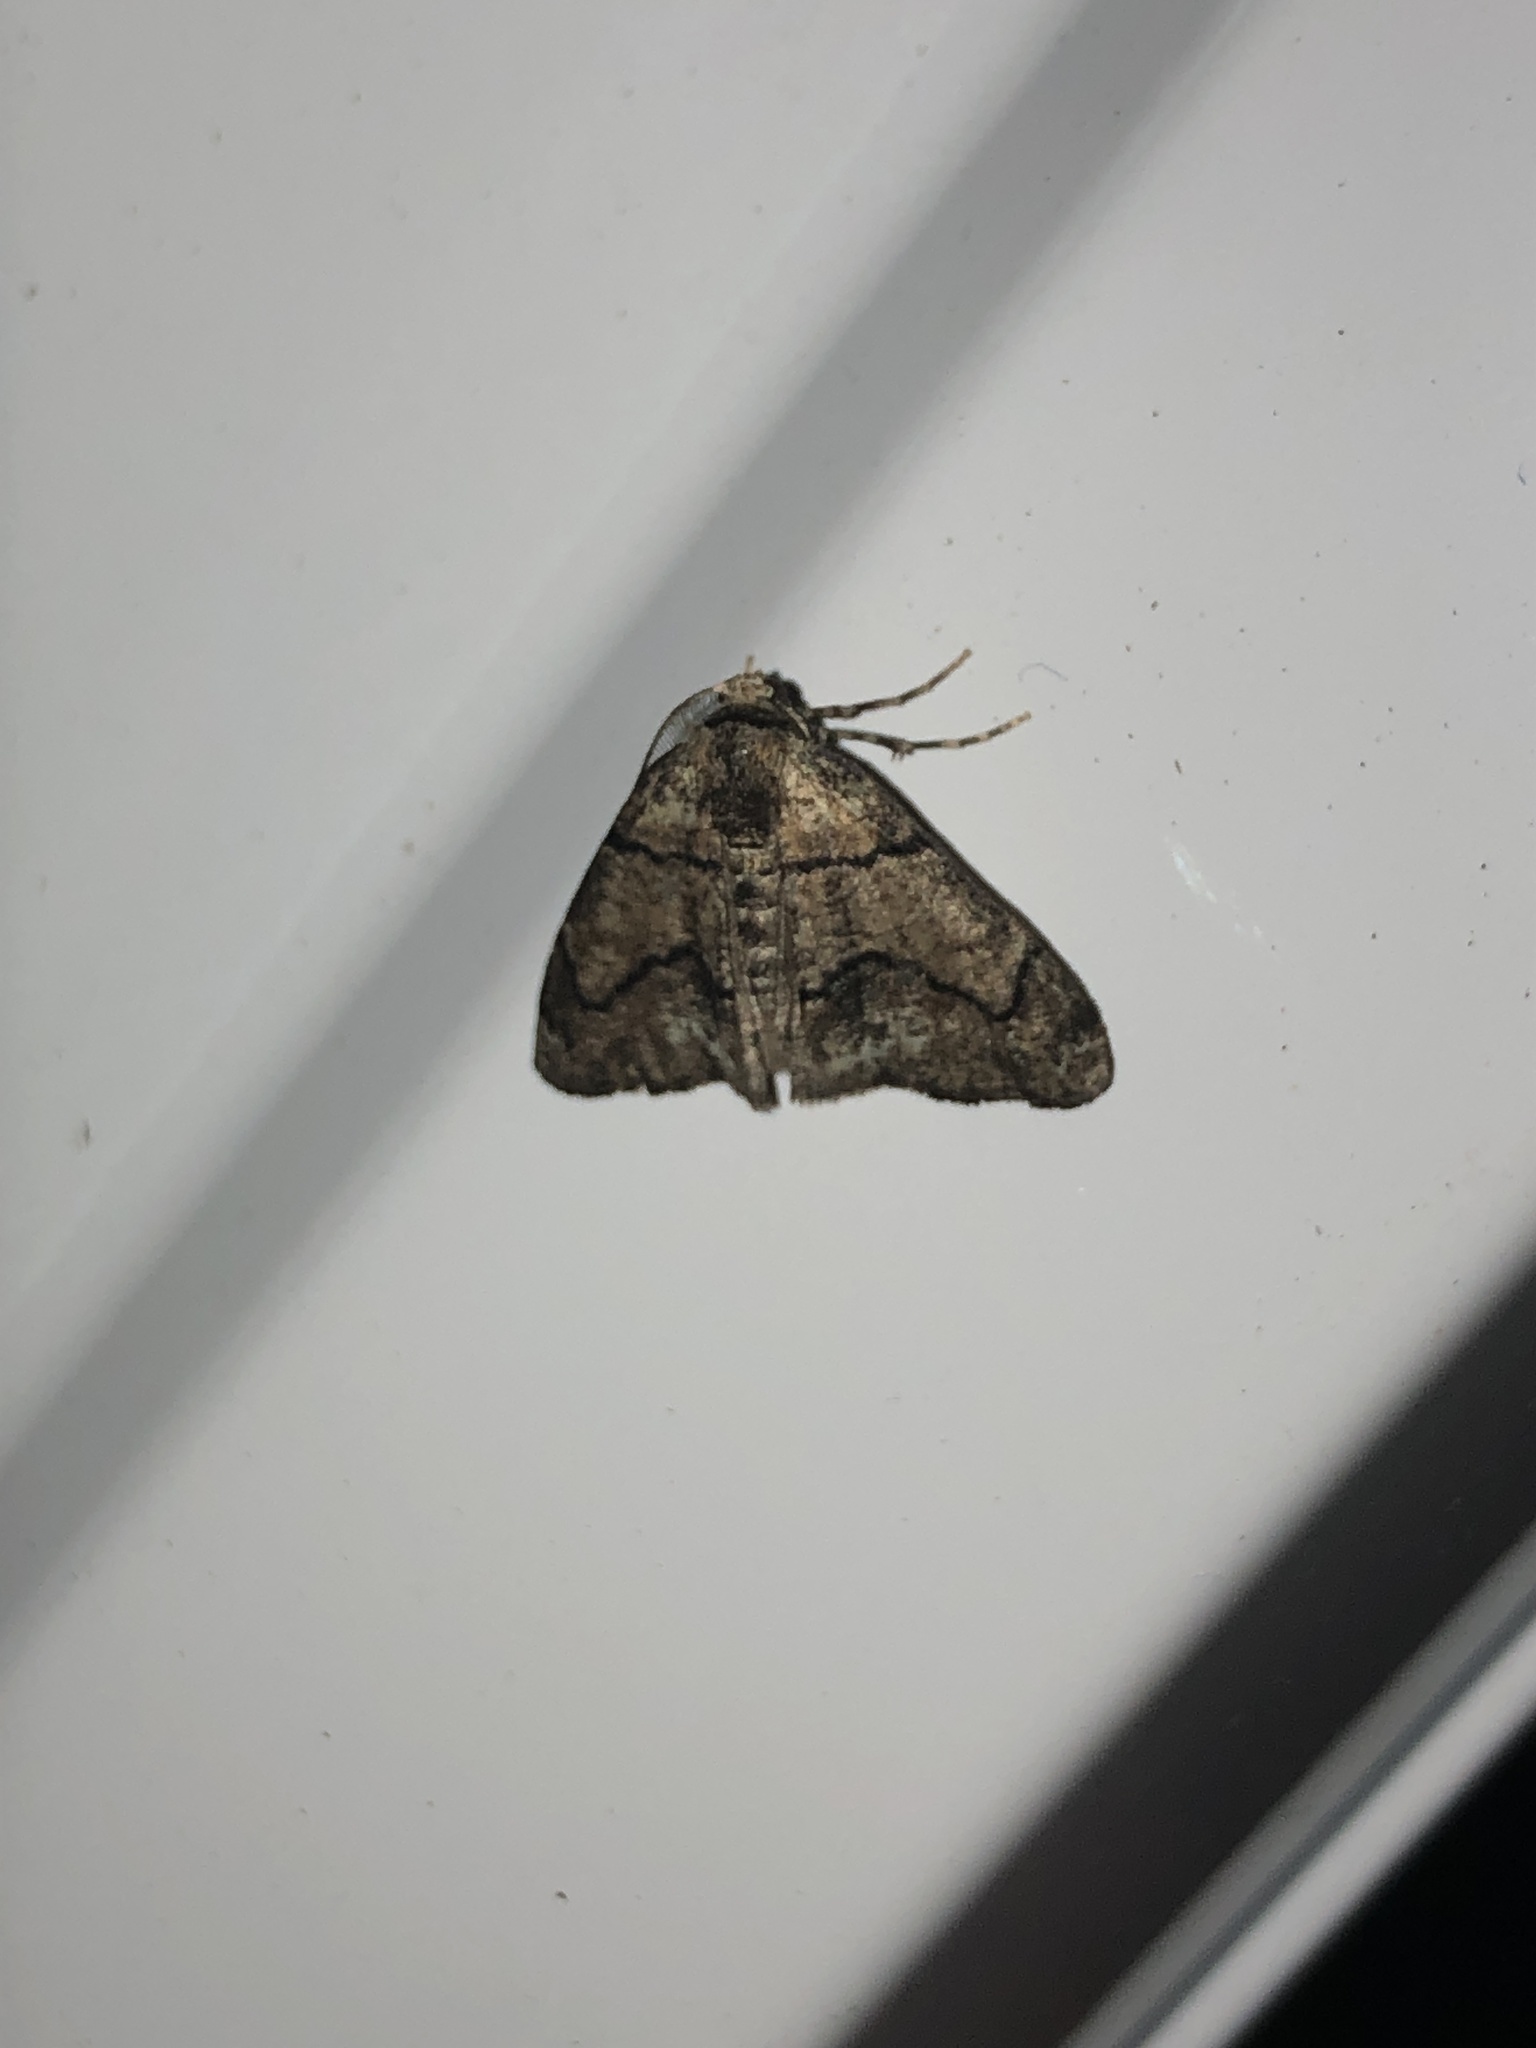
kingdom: Animalia
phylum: Arthropoda
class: Insecta
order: Lepidoptera
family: Geometridae
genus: Gabriola
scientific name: Gabriola dyari
